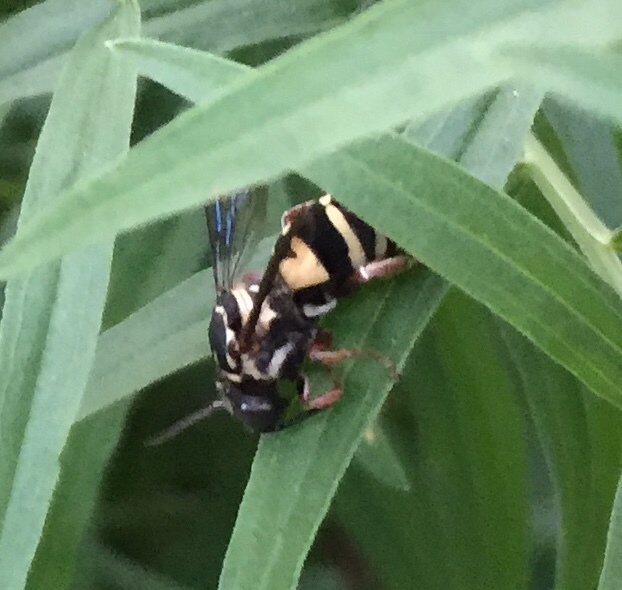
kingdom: Animalia
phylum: Arthropoda
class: Insecta
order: Hymenoptera
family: Apidae
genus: Triepeolus
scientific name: Triepeolus lunatus
